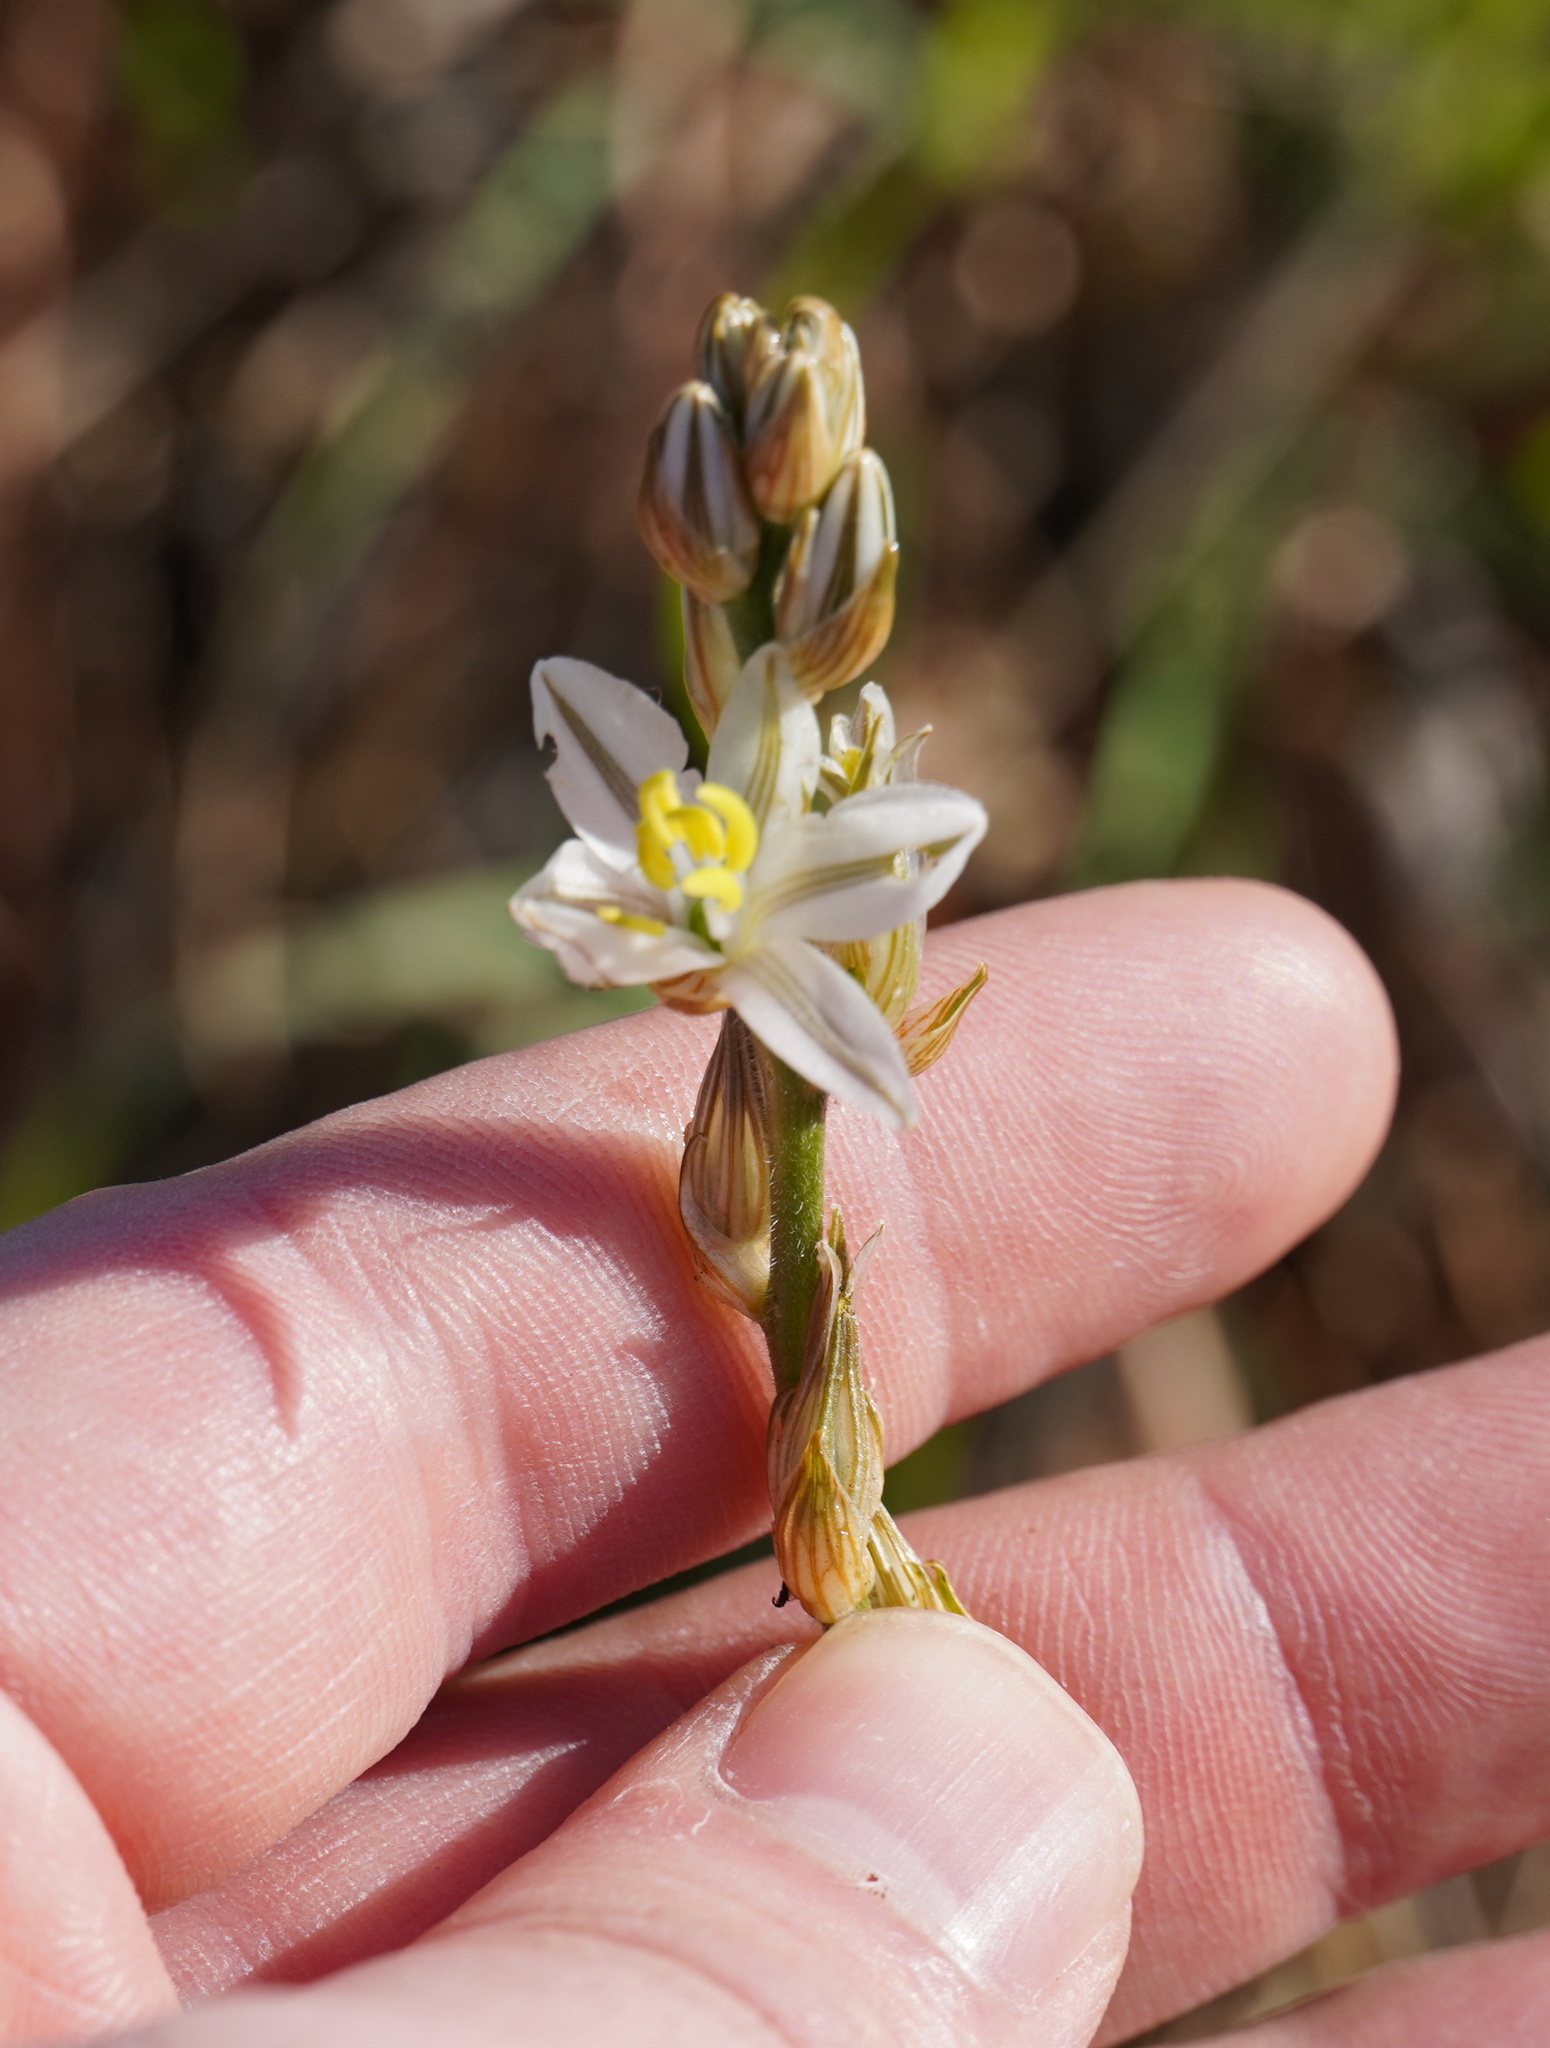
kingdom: Plantae
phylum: Tracheophyta
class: Liliopsida
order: Asparagales
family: Asparagaceae
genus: Chlorophytum
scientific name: Chlorophytum transvaalense
